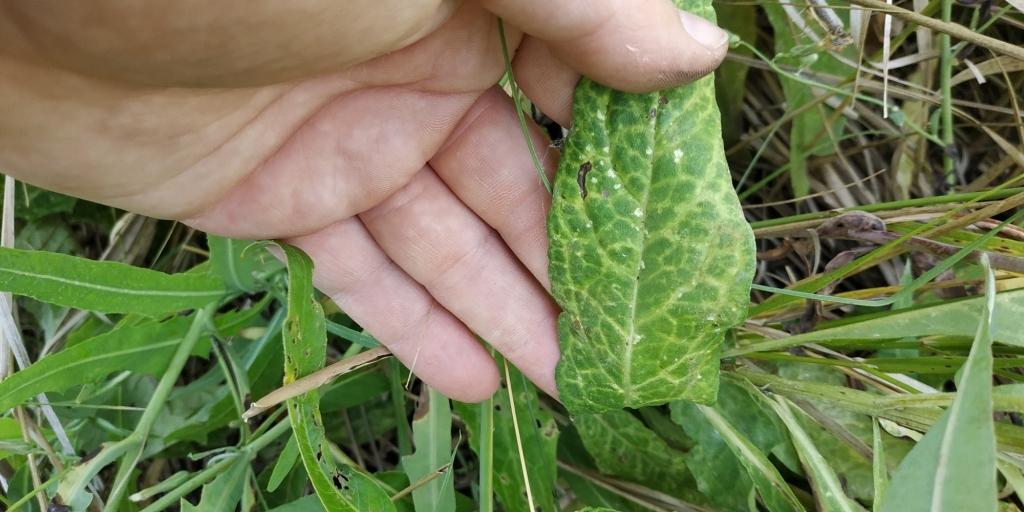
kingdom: Plantae
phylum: Tracheophyta
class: Magnoliopsida
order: Asterales
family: Asteraceae
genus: Saussurea
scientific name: Saussurea amara
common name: Alberta sawwort
